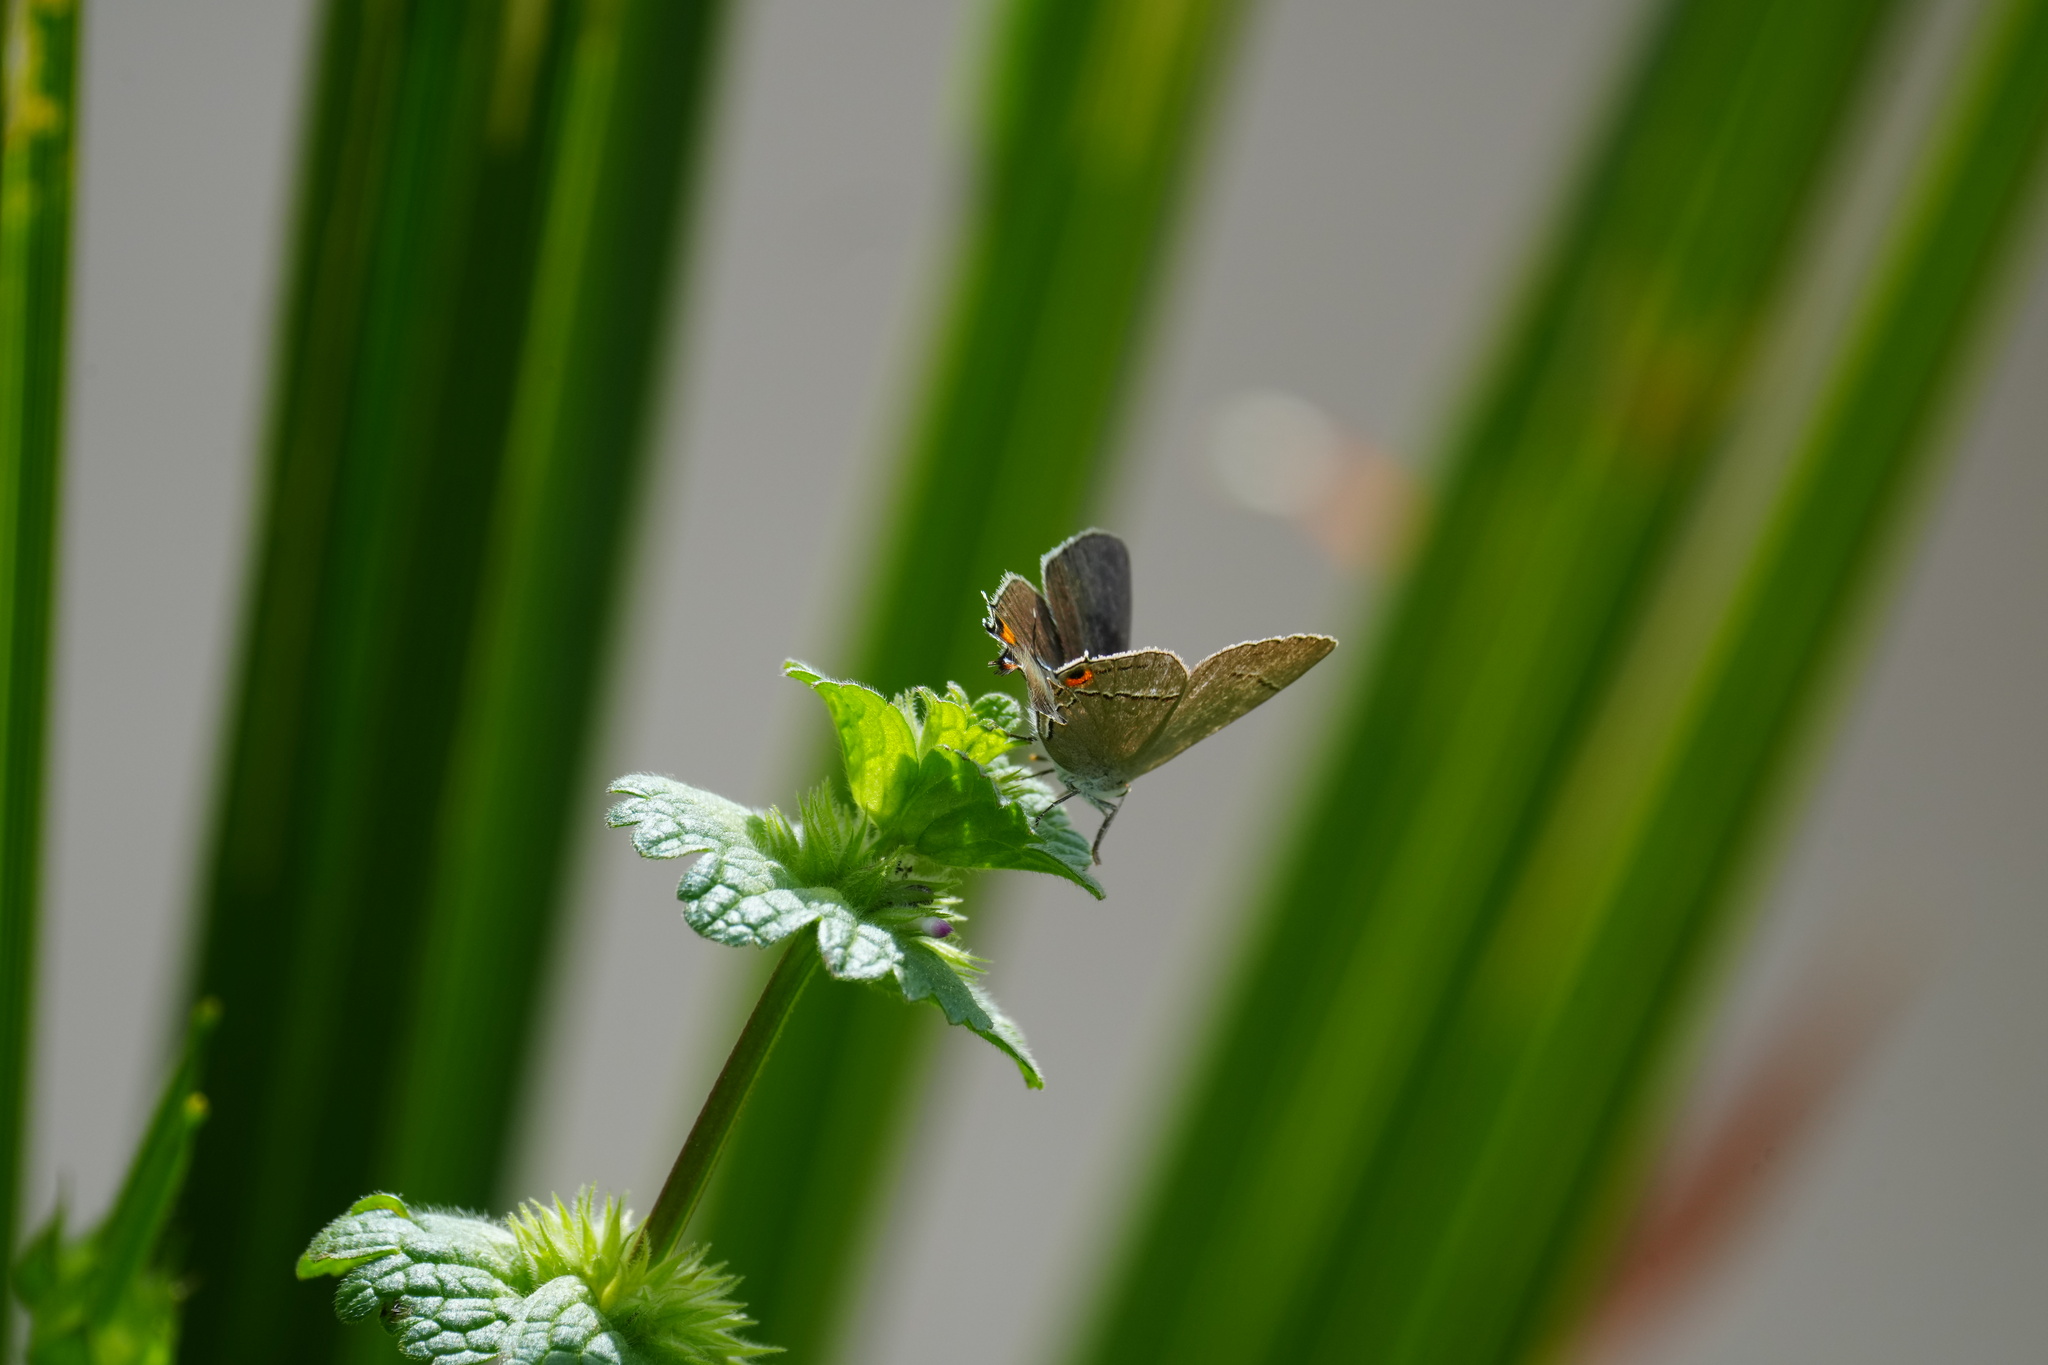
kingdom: Animalia
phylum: Arthropoda
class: Insecta
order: Lepidoptera
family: Lycaenidae
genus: Strymon
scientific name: Strymon melinus
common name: Gray hairstreak
